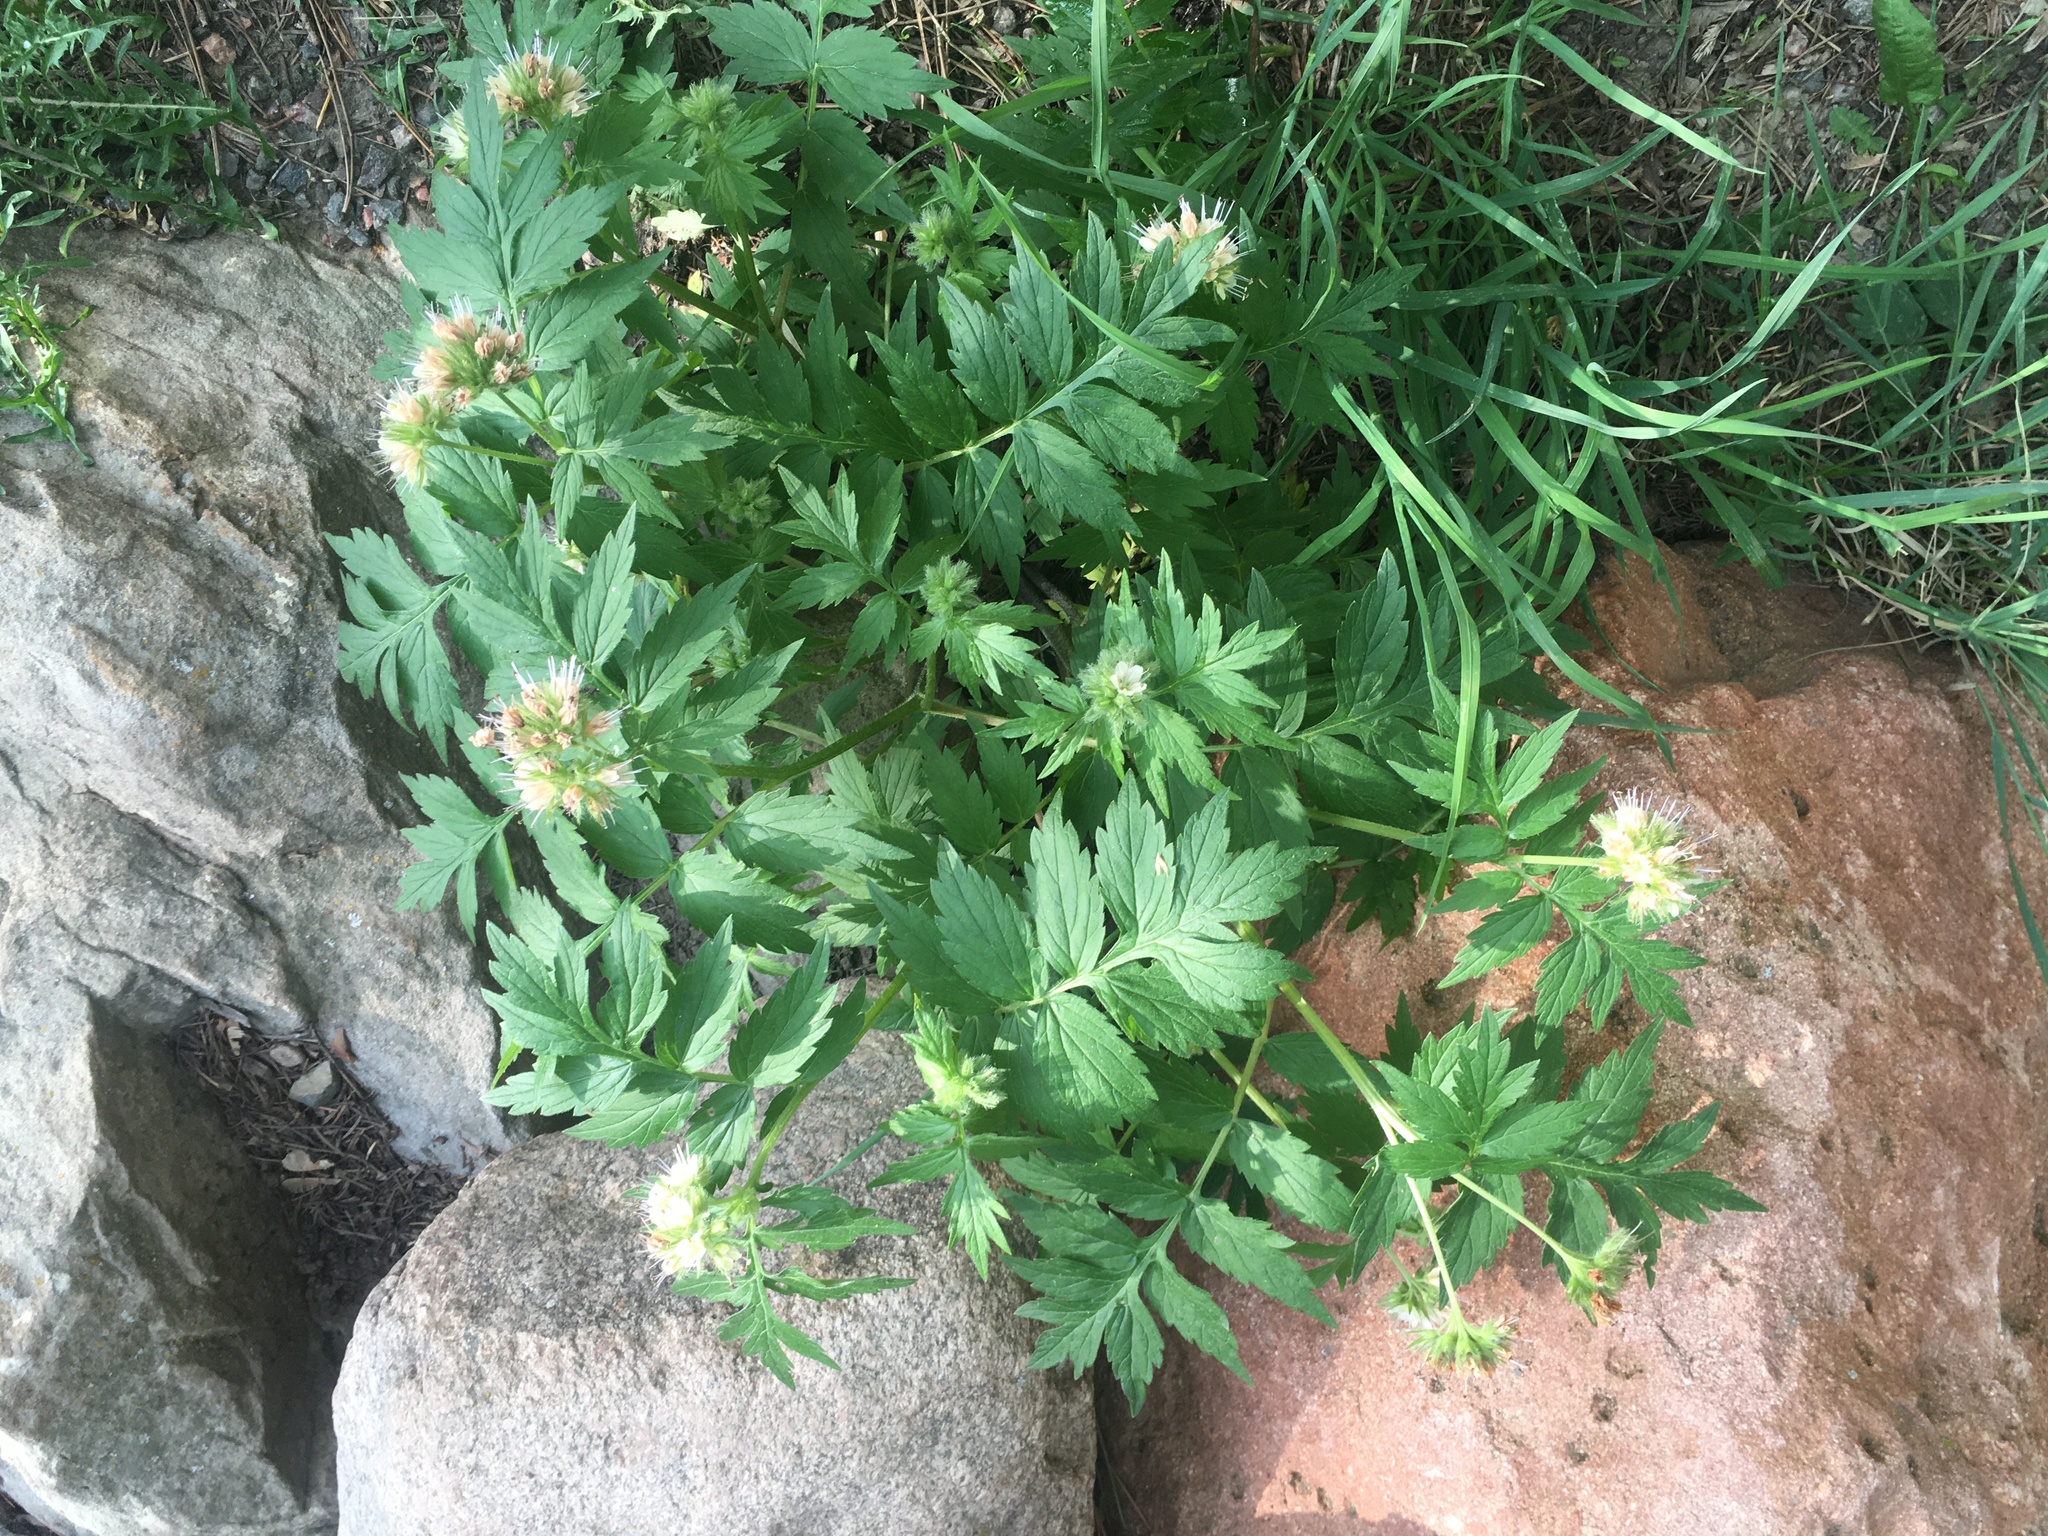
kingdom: Plantae
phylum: Tracheophyta
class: Magnoliopsida
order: Boraginales
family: Hydrophyllaceae
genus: Hydrophyllum
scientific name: Hydrophyllum fendleri
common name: Fendler's waterleaf
